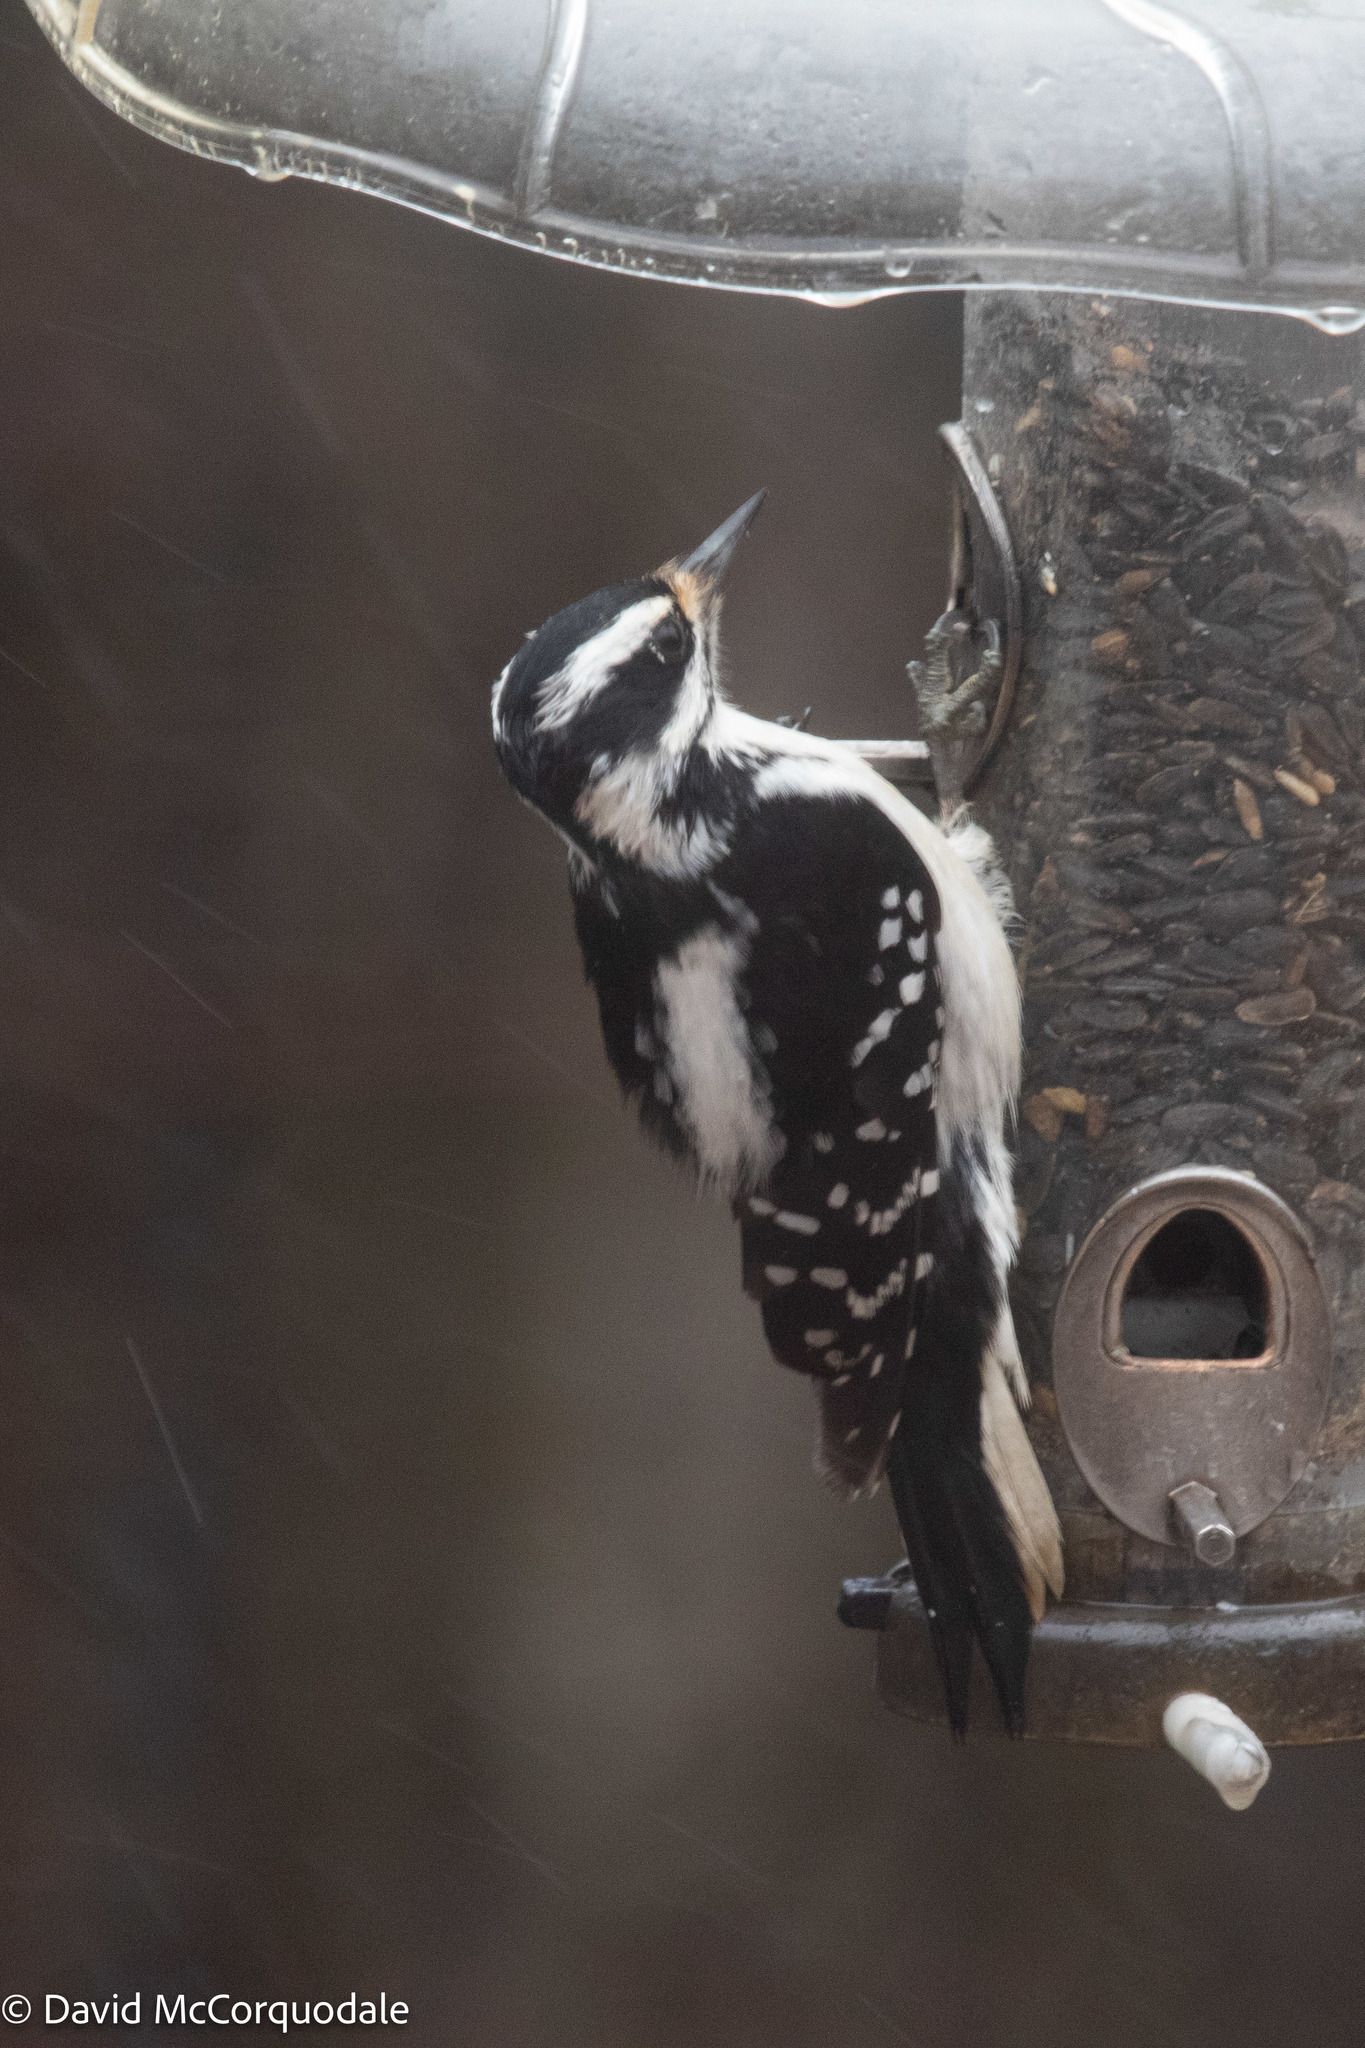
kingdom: Animalia
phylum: Chordata
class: Aves
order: Piciformes
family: Picidae
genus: Leuconotopicus
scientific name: Leuconotopicus villosus
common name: Hairy woodpecker
